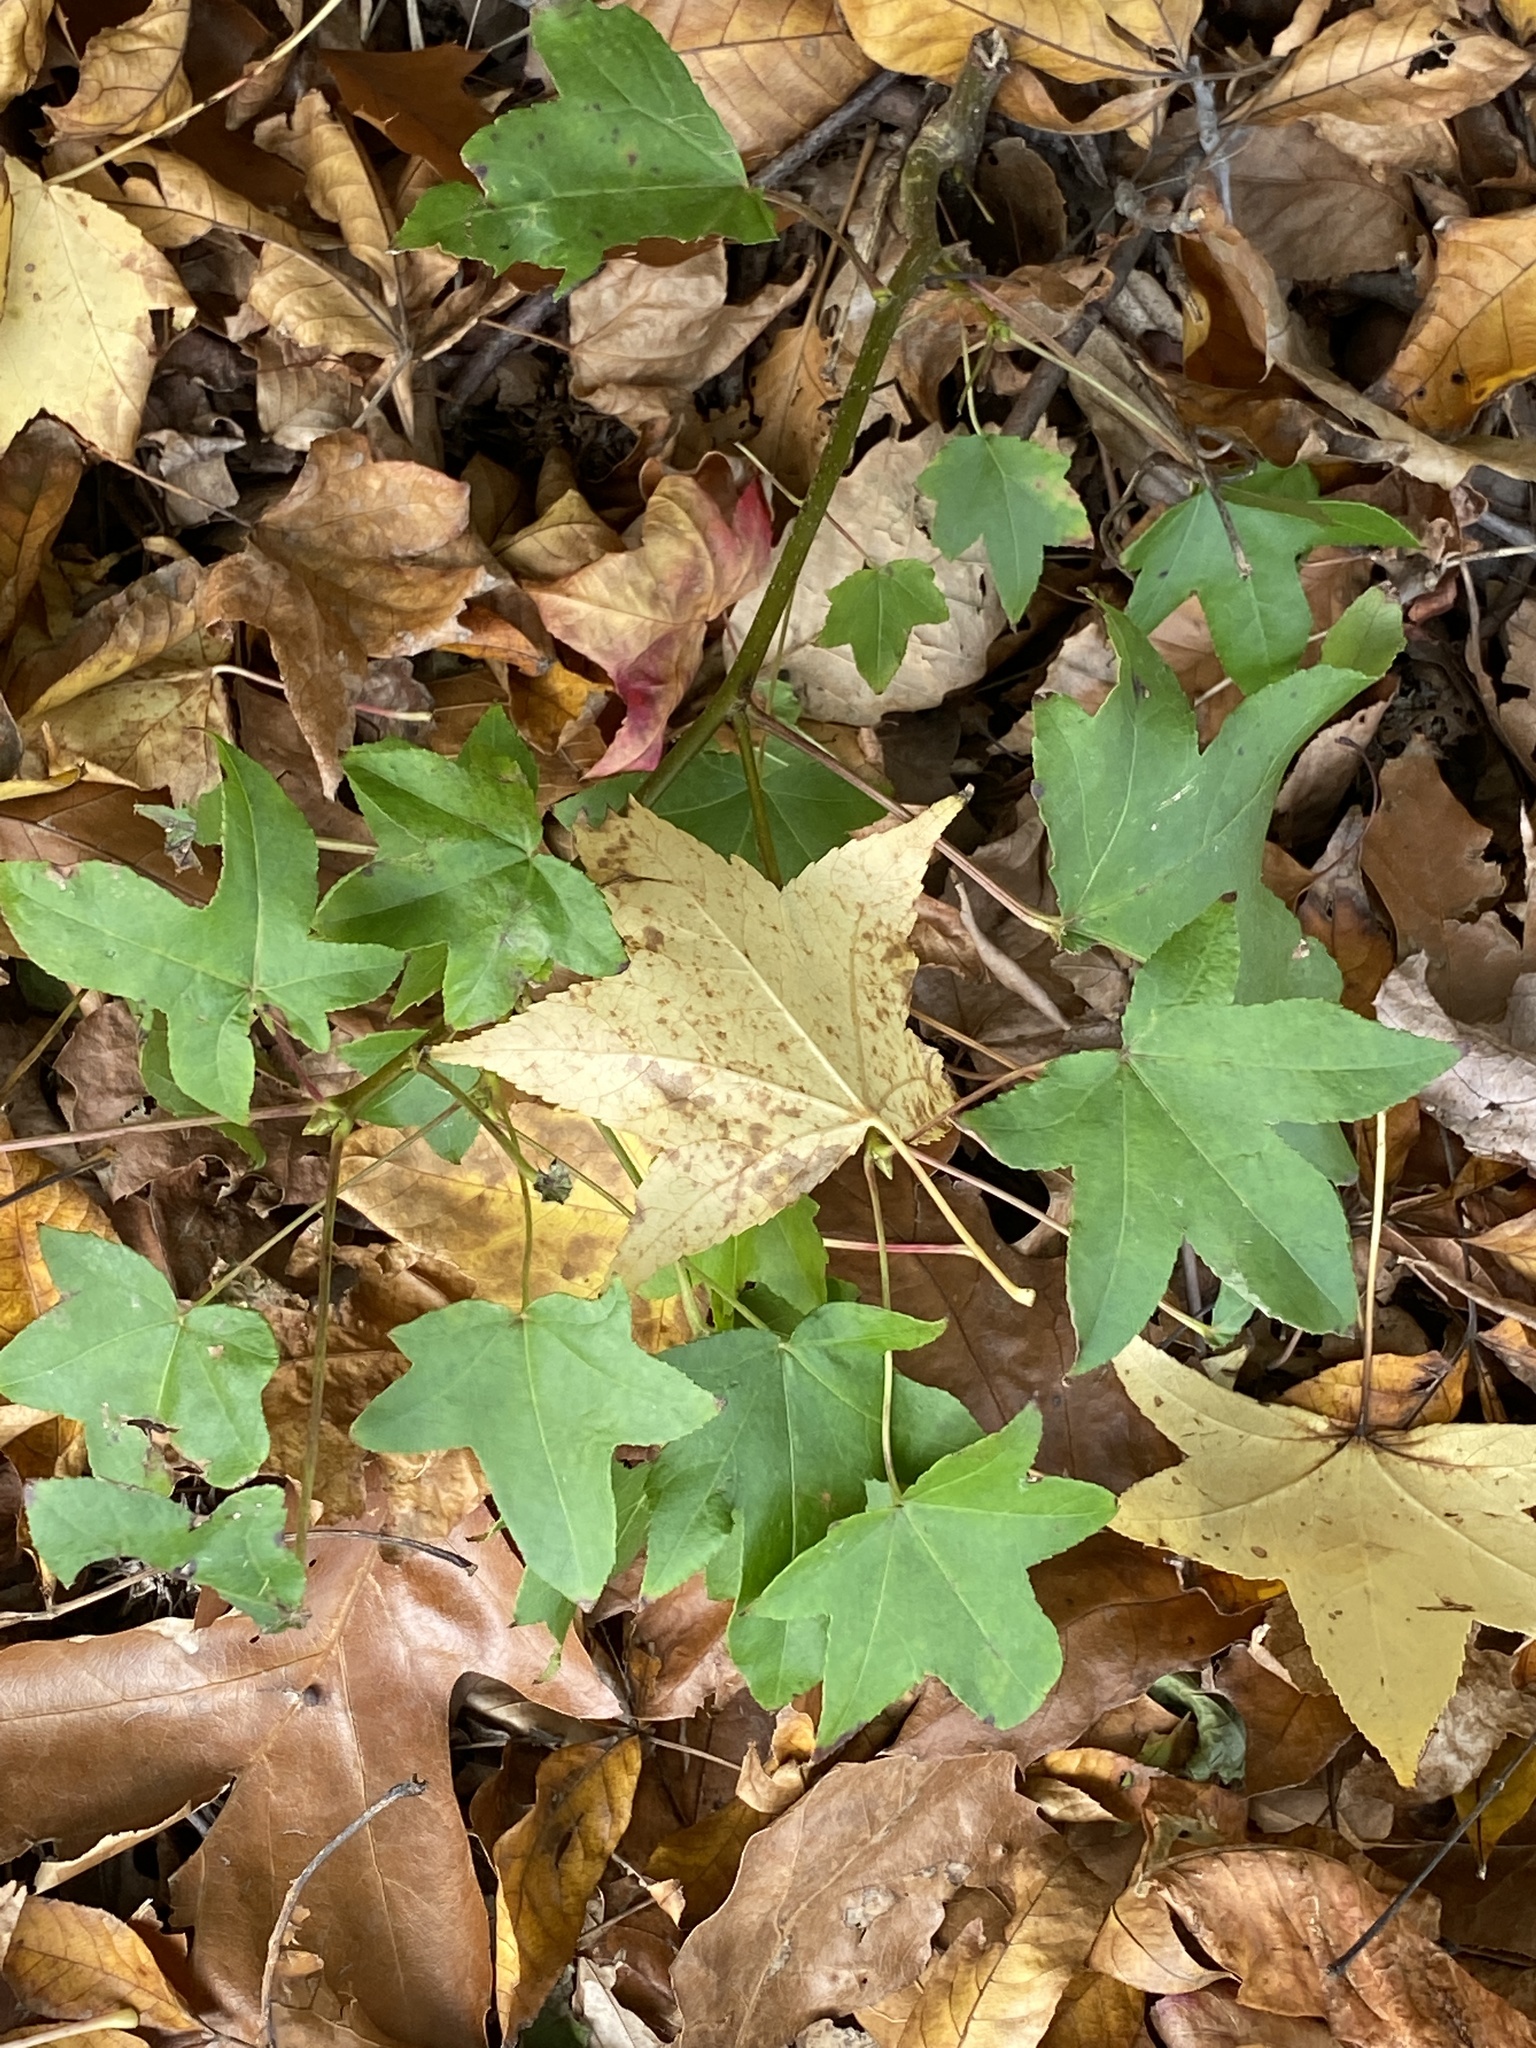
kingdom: Plantae
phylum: Tracheophyta
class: Magnoliopsida
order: Saxifragales
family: Altingiaceae
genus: Liquidambar
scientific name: Liquidambar styraciflua
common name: Sweet gum
